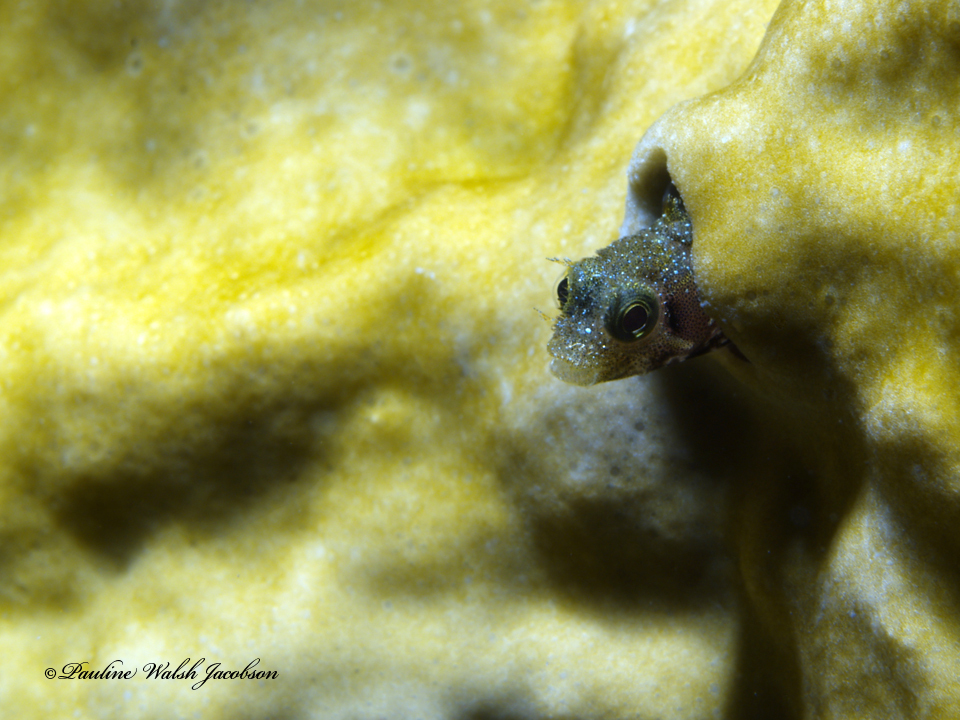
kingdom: Animalia
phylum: Chordata
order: Perciformes
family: Chaenopsidae
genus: Acanthemblemaria
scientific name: Acanthemblemaria spinosa
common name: Spinyhead blenny
